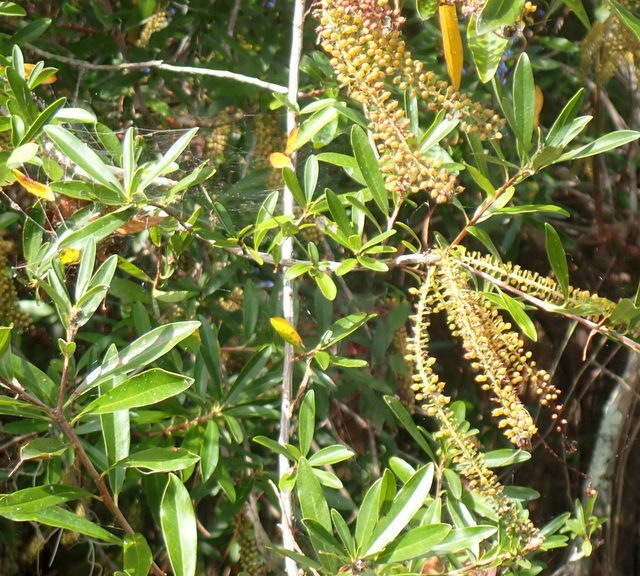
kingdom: Plantae
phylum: Tracheophyta
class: Magnoliopsida
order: Ericales
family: Cyrillaceae
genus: Cyrilla
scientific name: Cyrilla racemiflora
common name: Black titi
